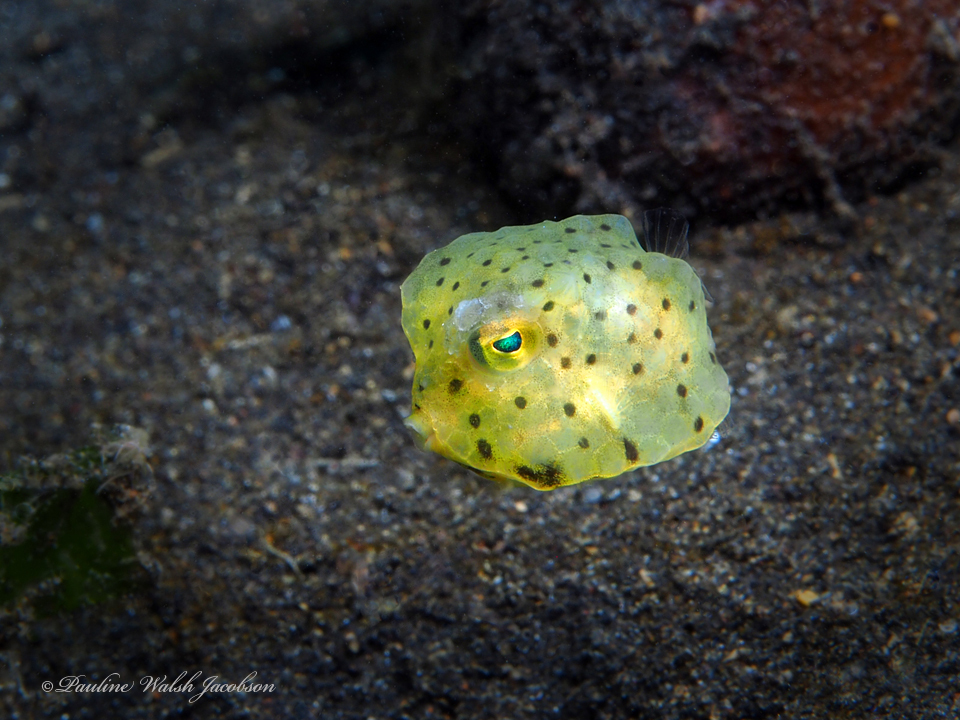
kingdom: Animalia
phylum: Chordata
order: Tetraodontiformes
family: Ostraciidae
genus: Lactoria
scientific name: Lactoria diaphana
